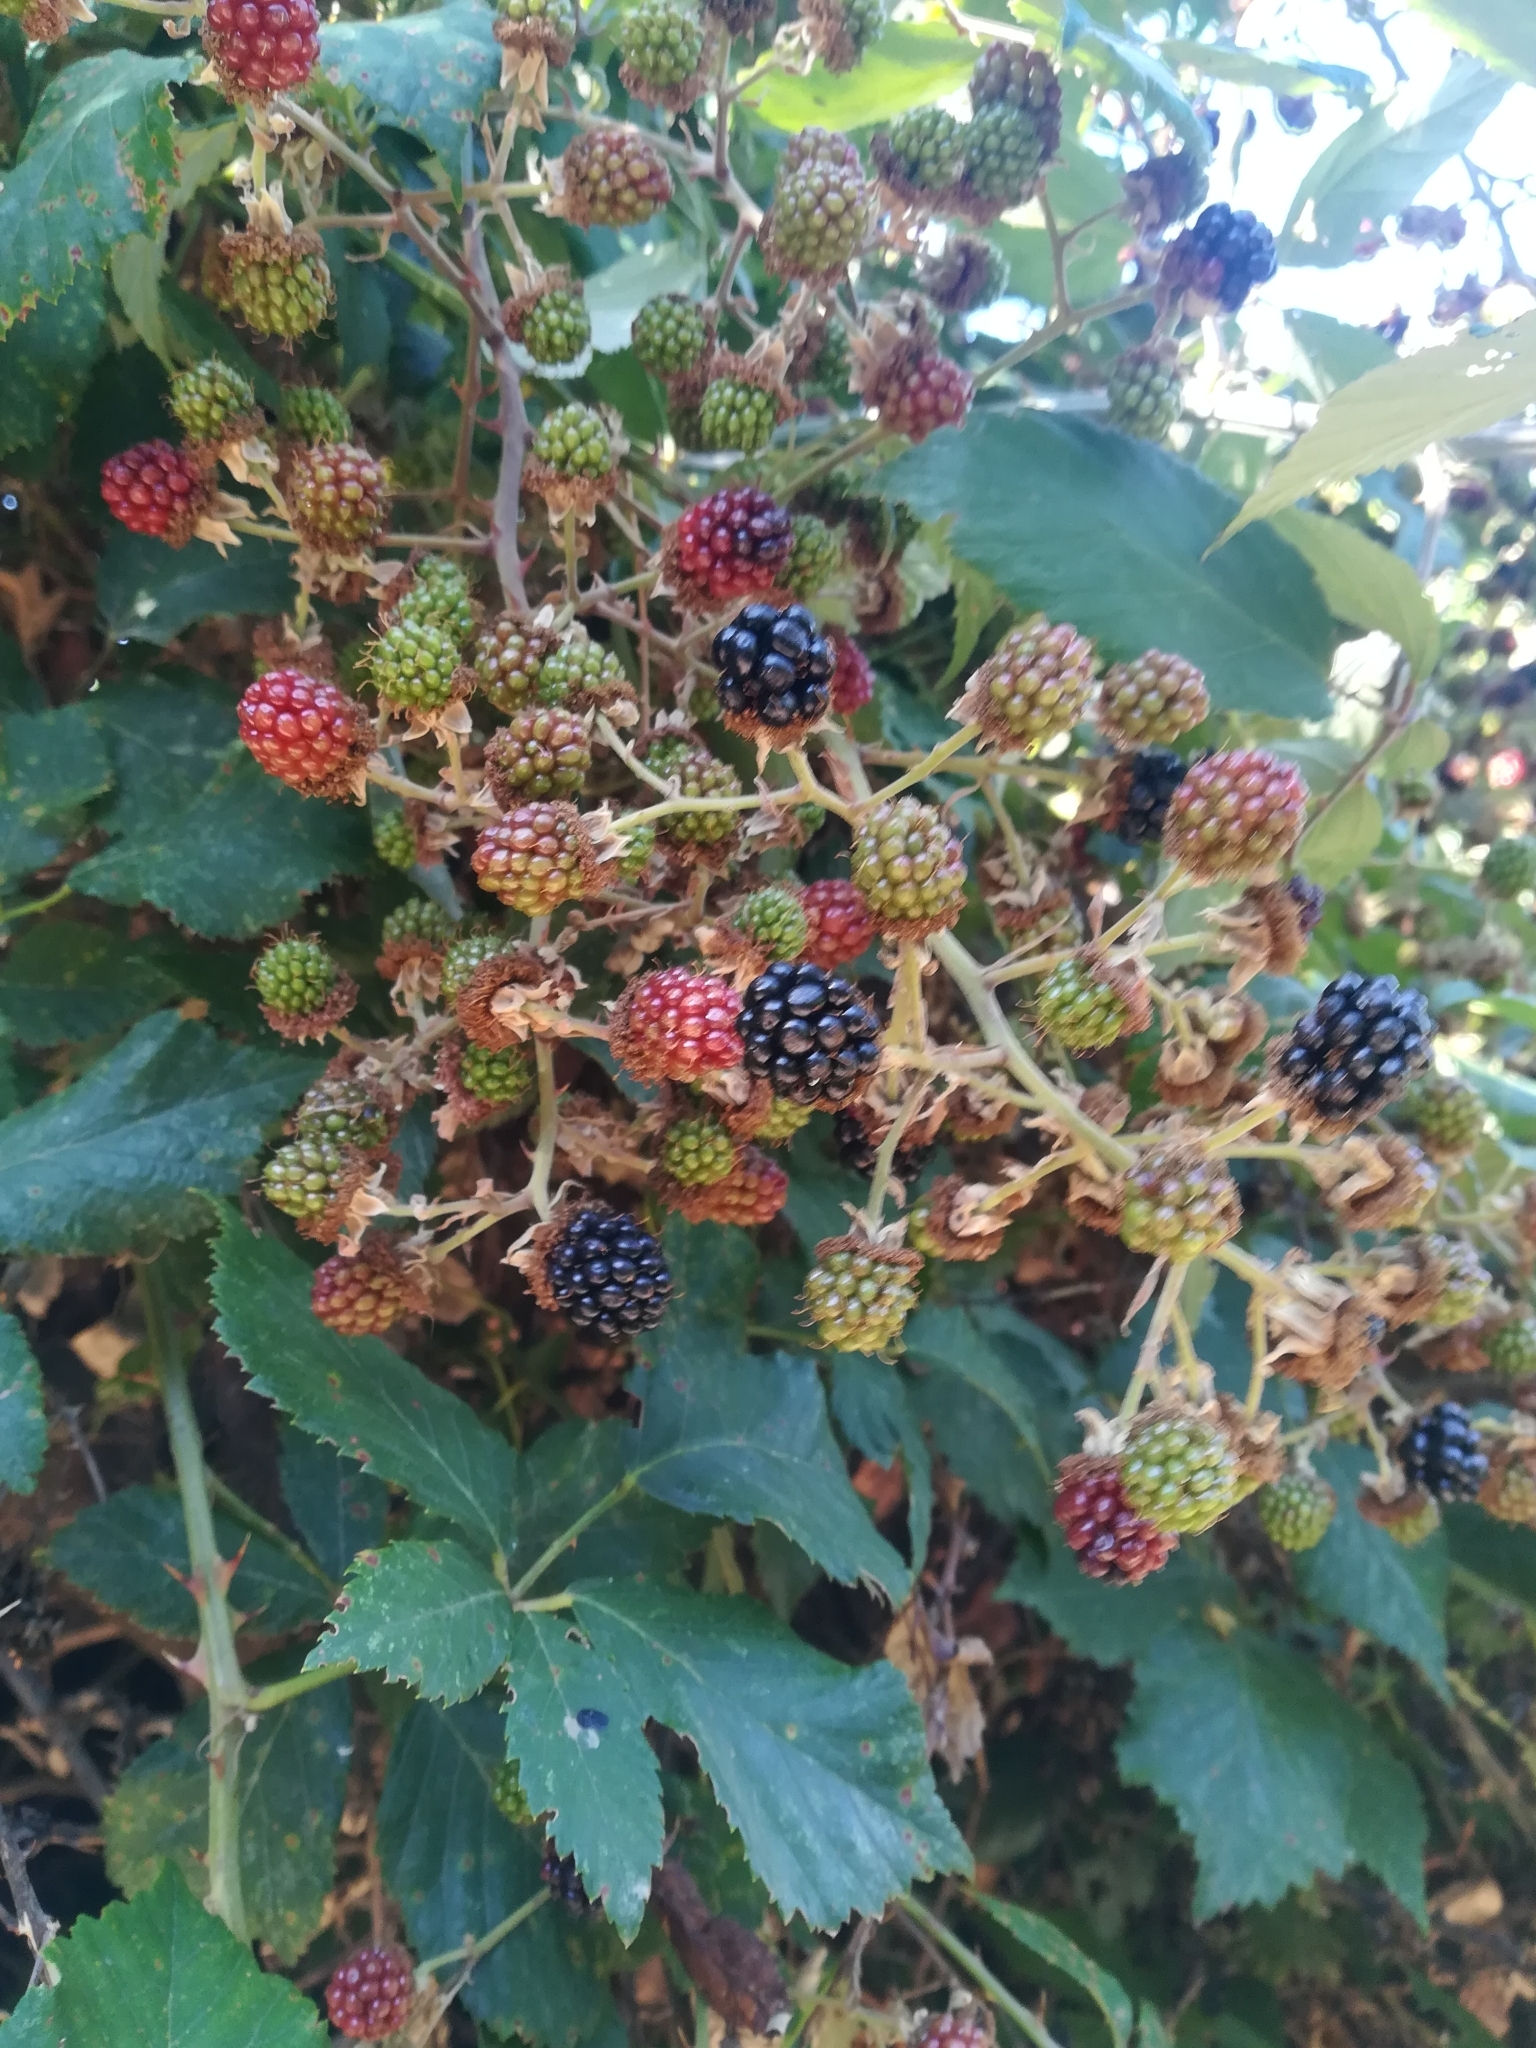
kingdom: Plantae
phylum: Tracheophyta
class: Magnoliopsida
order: Rosales
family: Rosaceae
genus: Rubus
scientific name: Rubus ulmifolius
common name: Elmleaf blackberry
